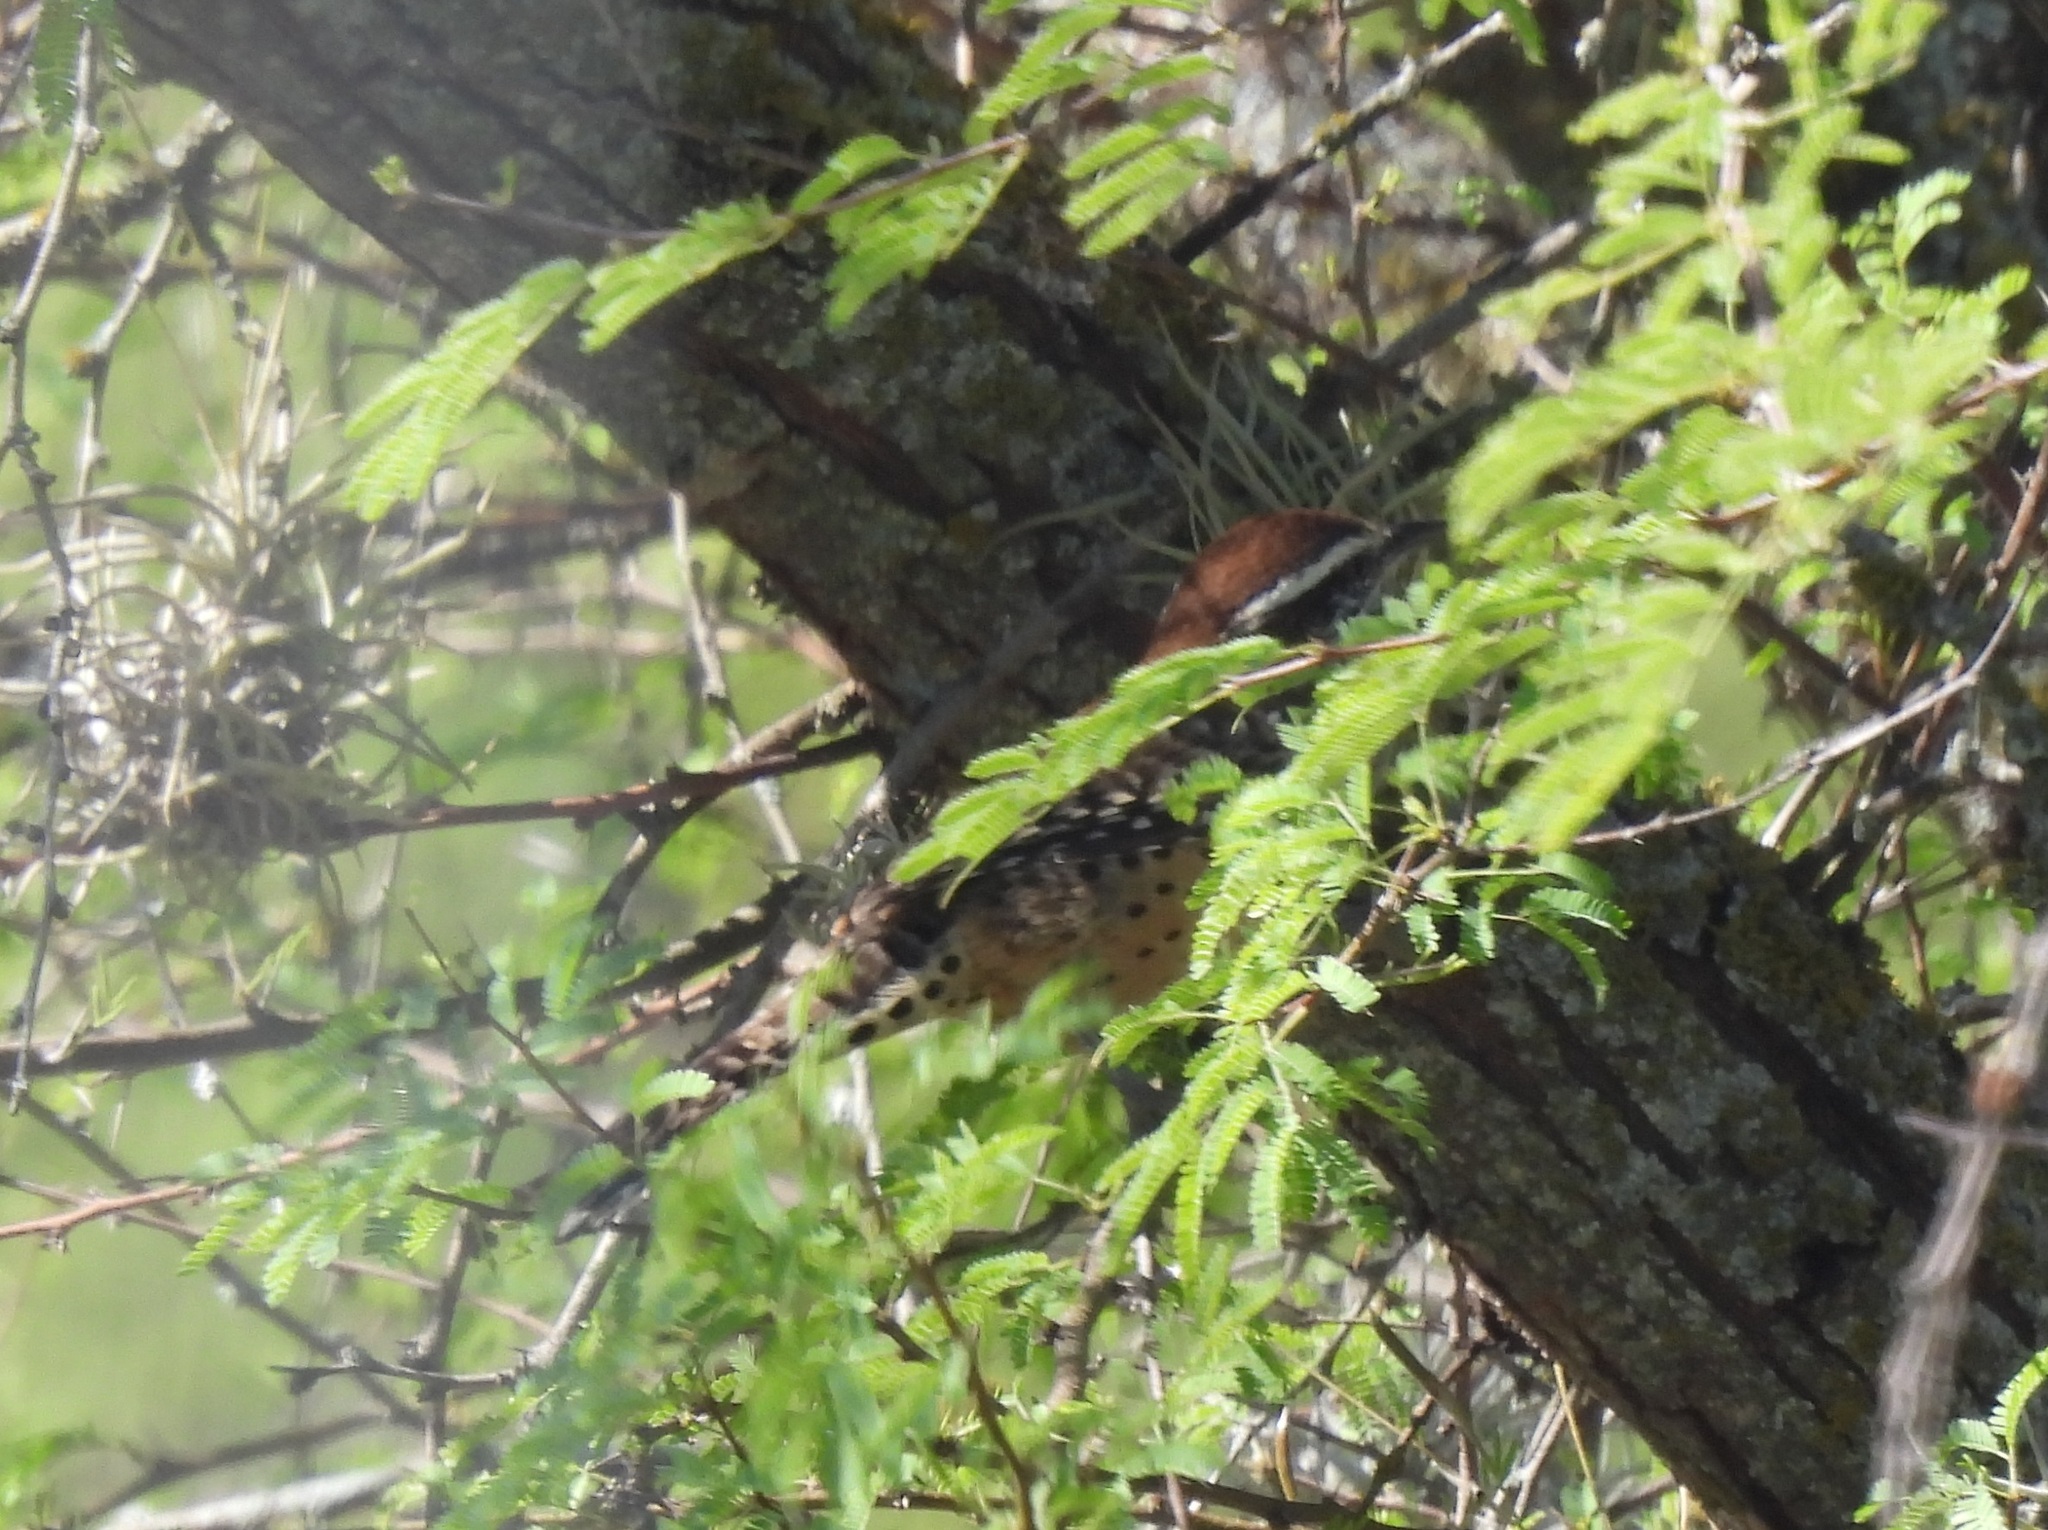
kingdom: Animalia
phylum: Chordata
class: Aves
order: Passeriformes
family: Troglodytidae
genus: Campylorhynchus
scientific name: Campylorhynchus brunneicapillus
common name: Cactus wren
